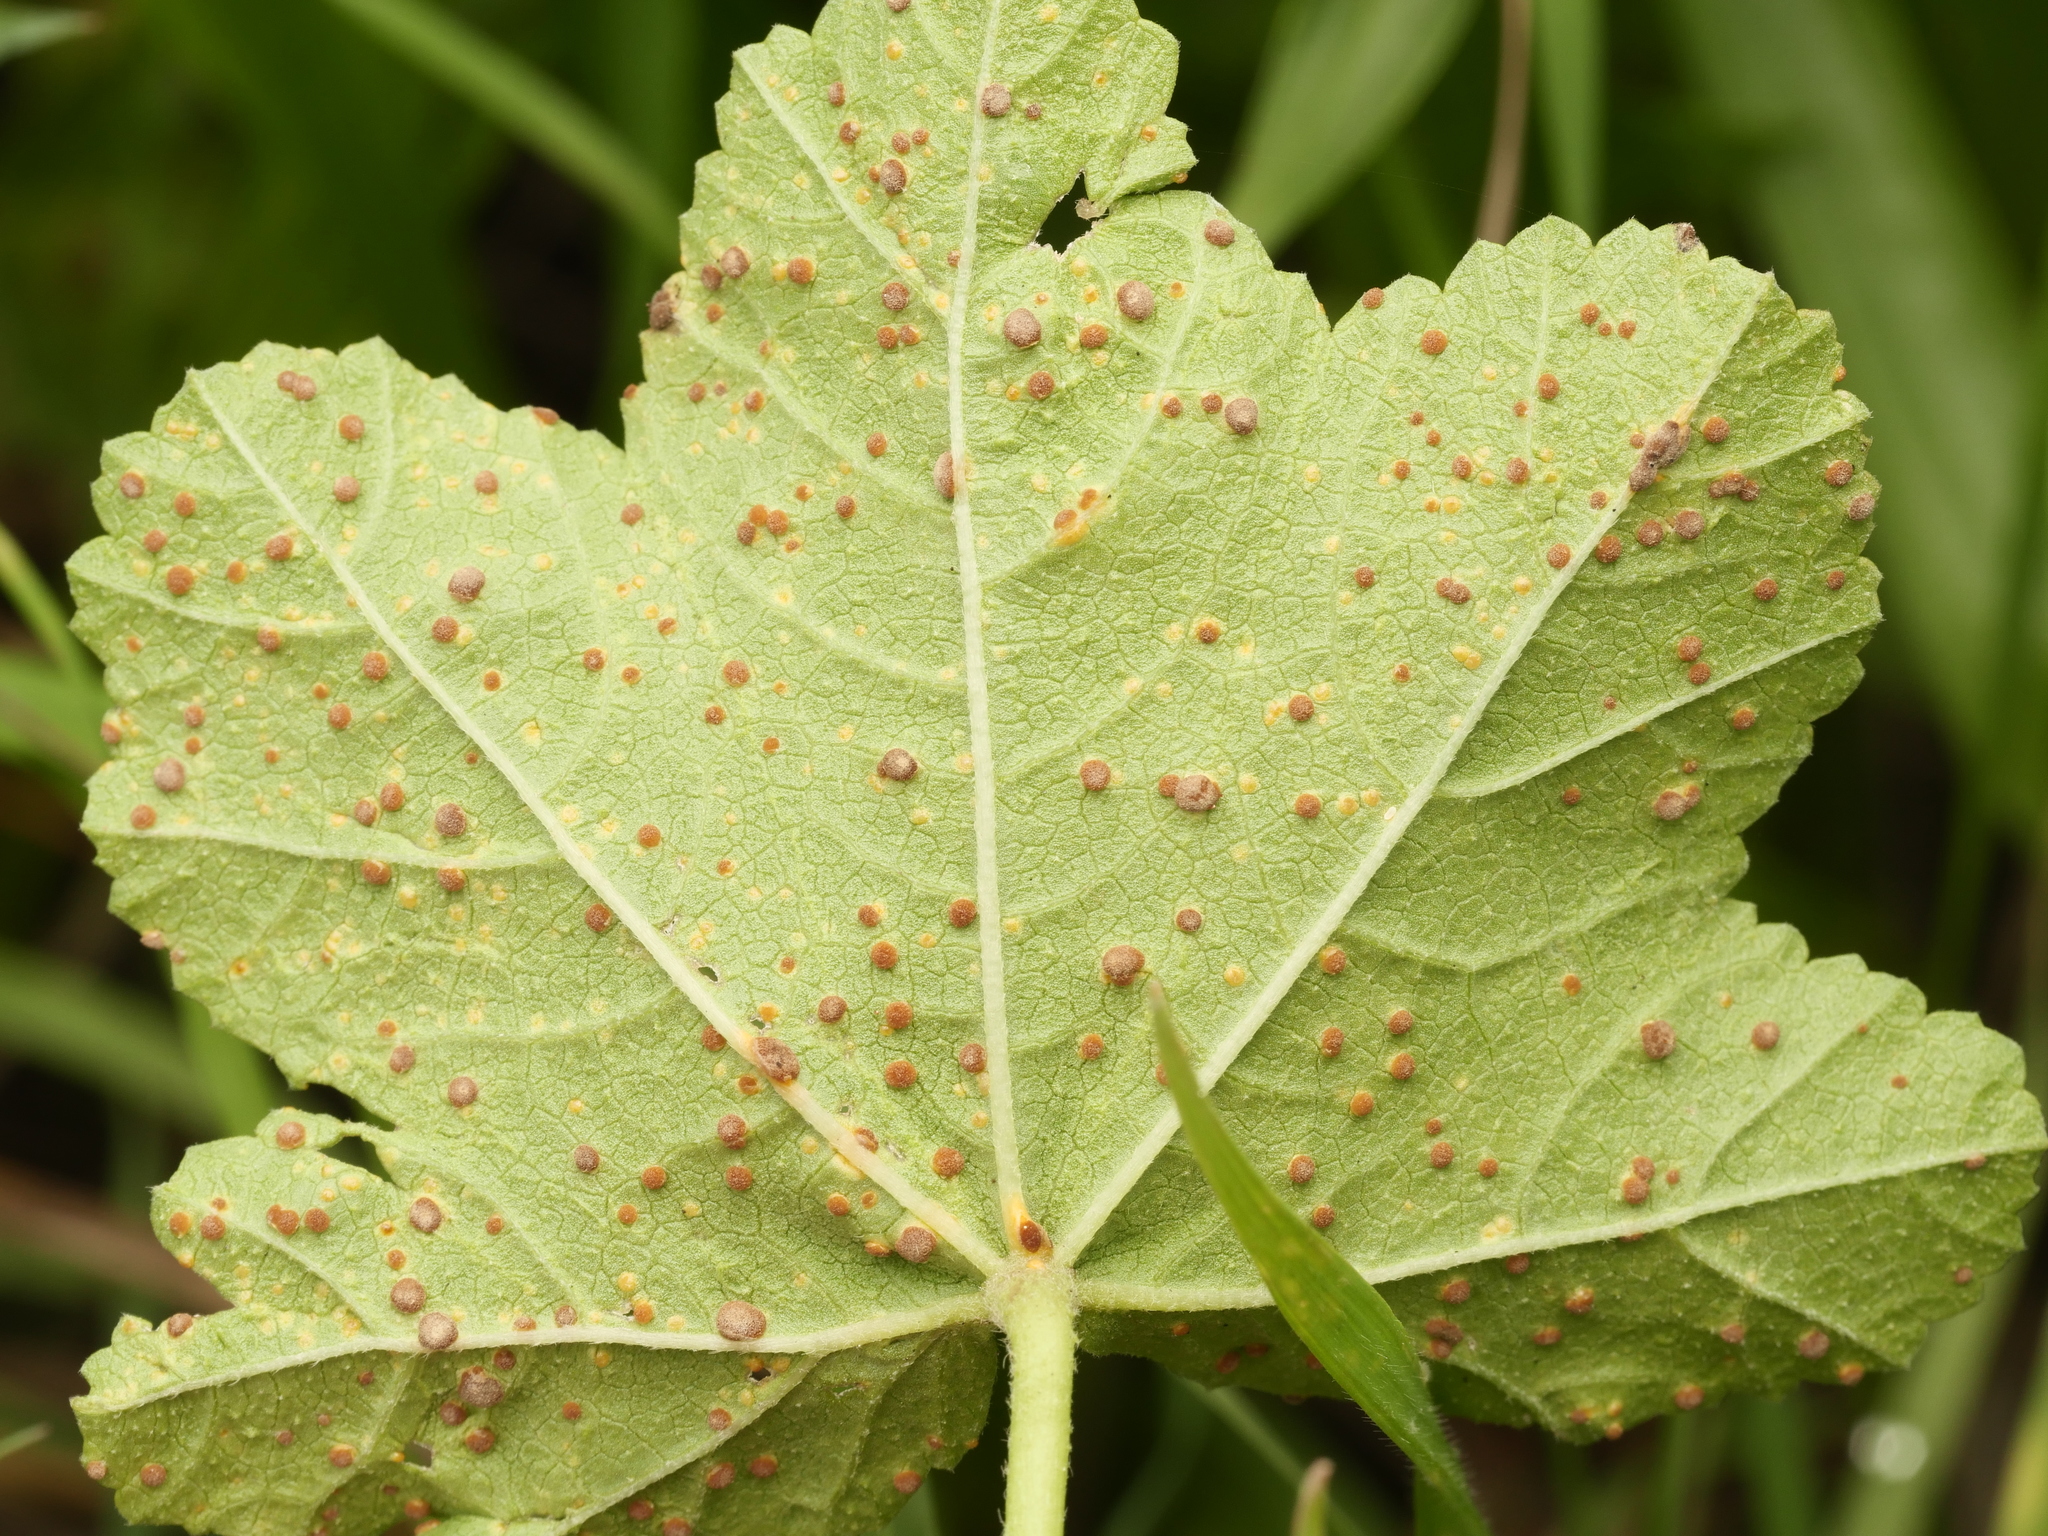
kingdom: Fungi
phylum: Basidiomycota
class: Pucciniomycetes
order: Pucciniales
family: Pucciniaceae
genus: Puccinia
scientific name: Puccinia malvacearum
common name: Hollyhock rust
